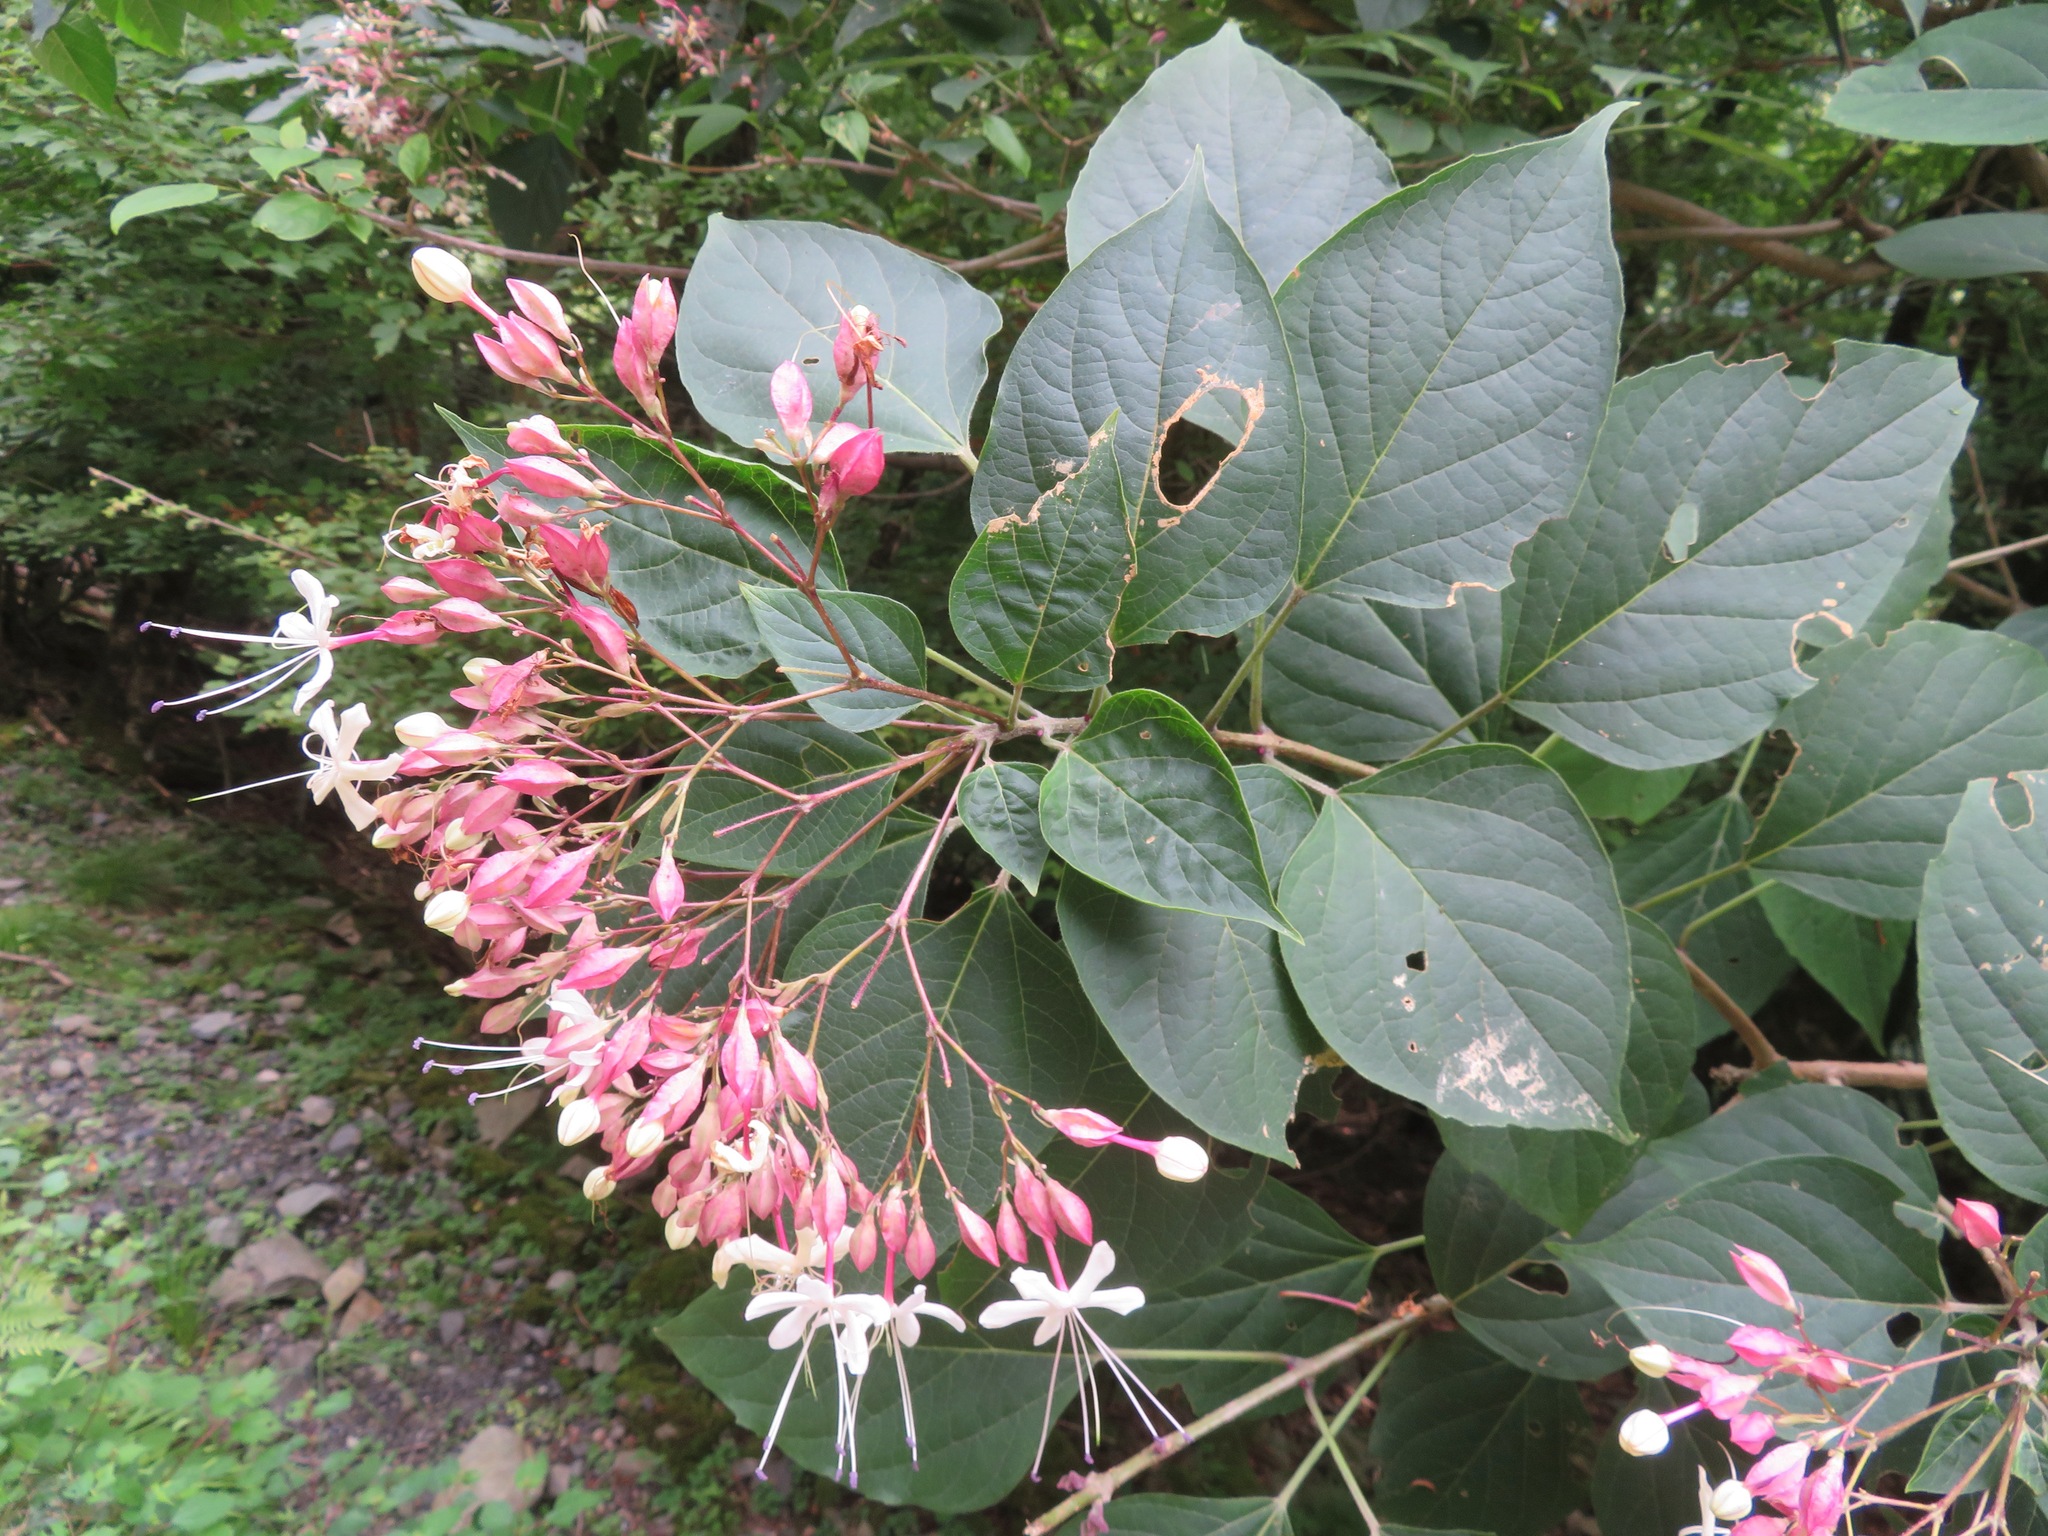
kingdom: Plantae
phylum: Tracheophyta
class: Magnoliopsida
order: Lamiales
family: Lamiaceae
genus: Clerodendrum
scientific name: Clerodendrum trichotomum
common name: Harlequin glorybower
